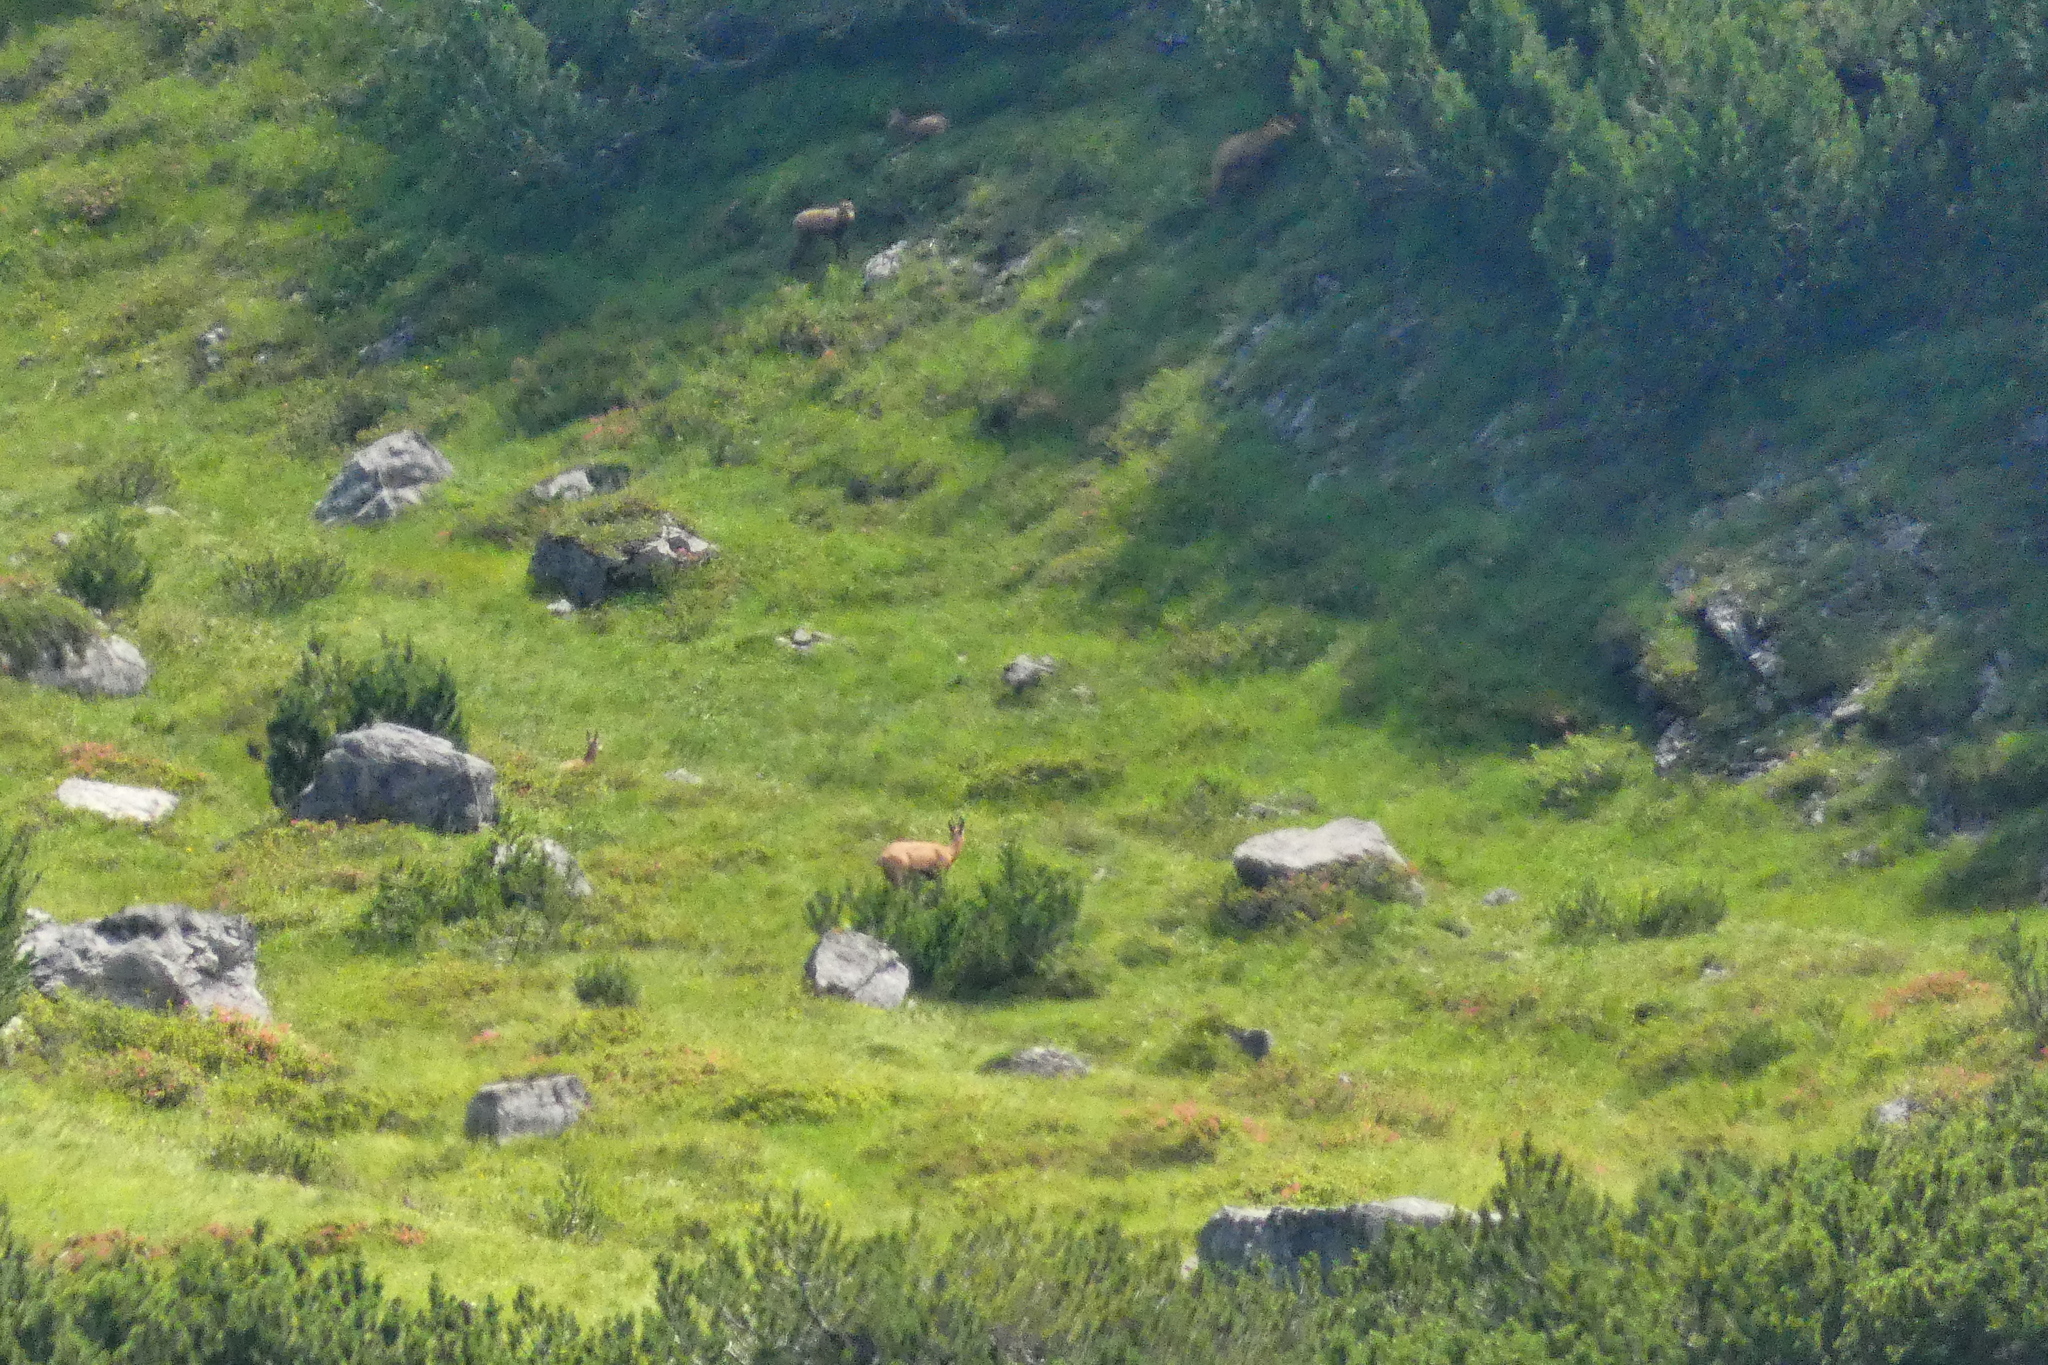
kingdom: Animalia
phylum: Chordata
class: Mammalia
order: Artiodactyla
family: Bovidae
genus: Rupicapra
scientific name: Rupicapra rupicapra
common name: Chamois
